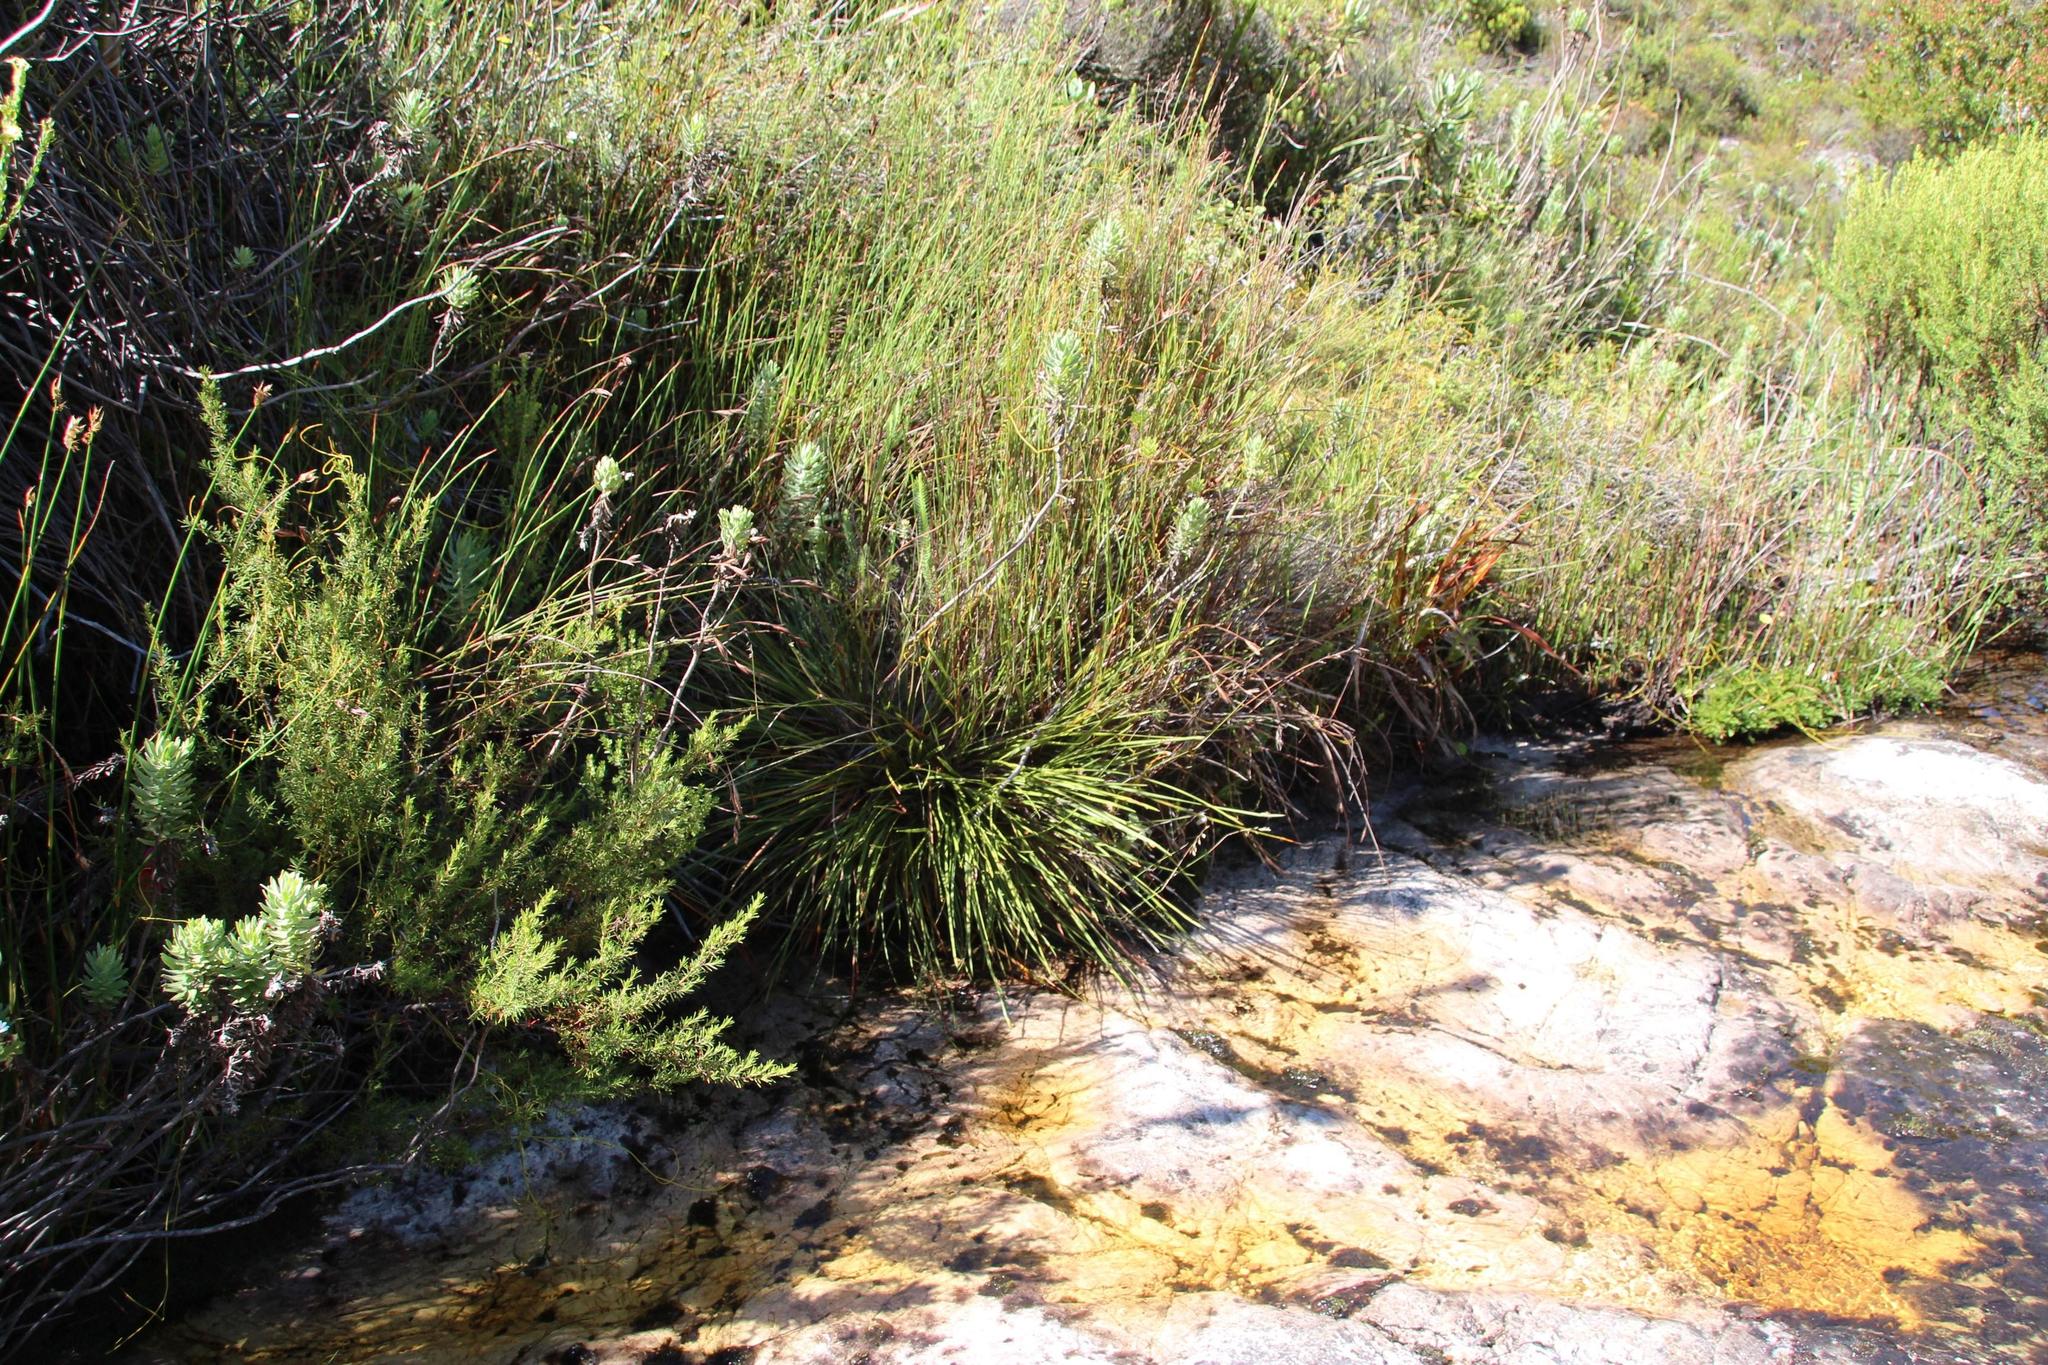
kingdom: Plantae
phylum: Tracheophyta
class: Liliopsida
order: Poales
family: Cyperaceae
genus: Chrysitrix
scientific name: Chrysitrix capensis
